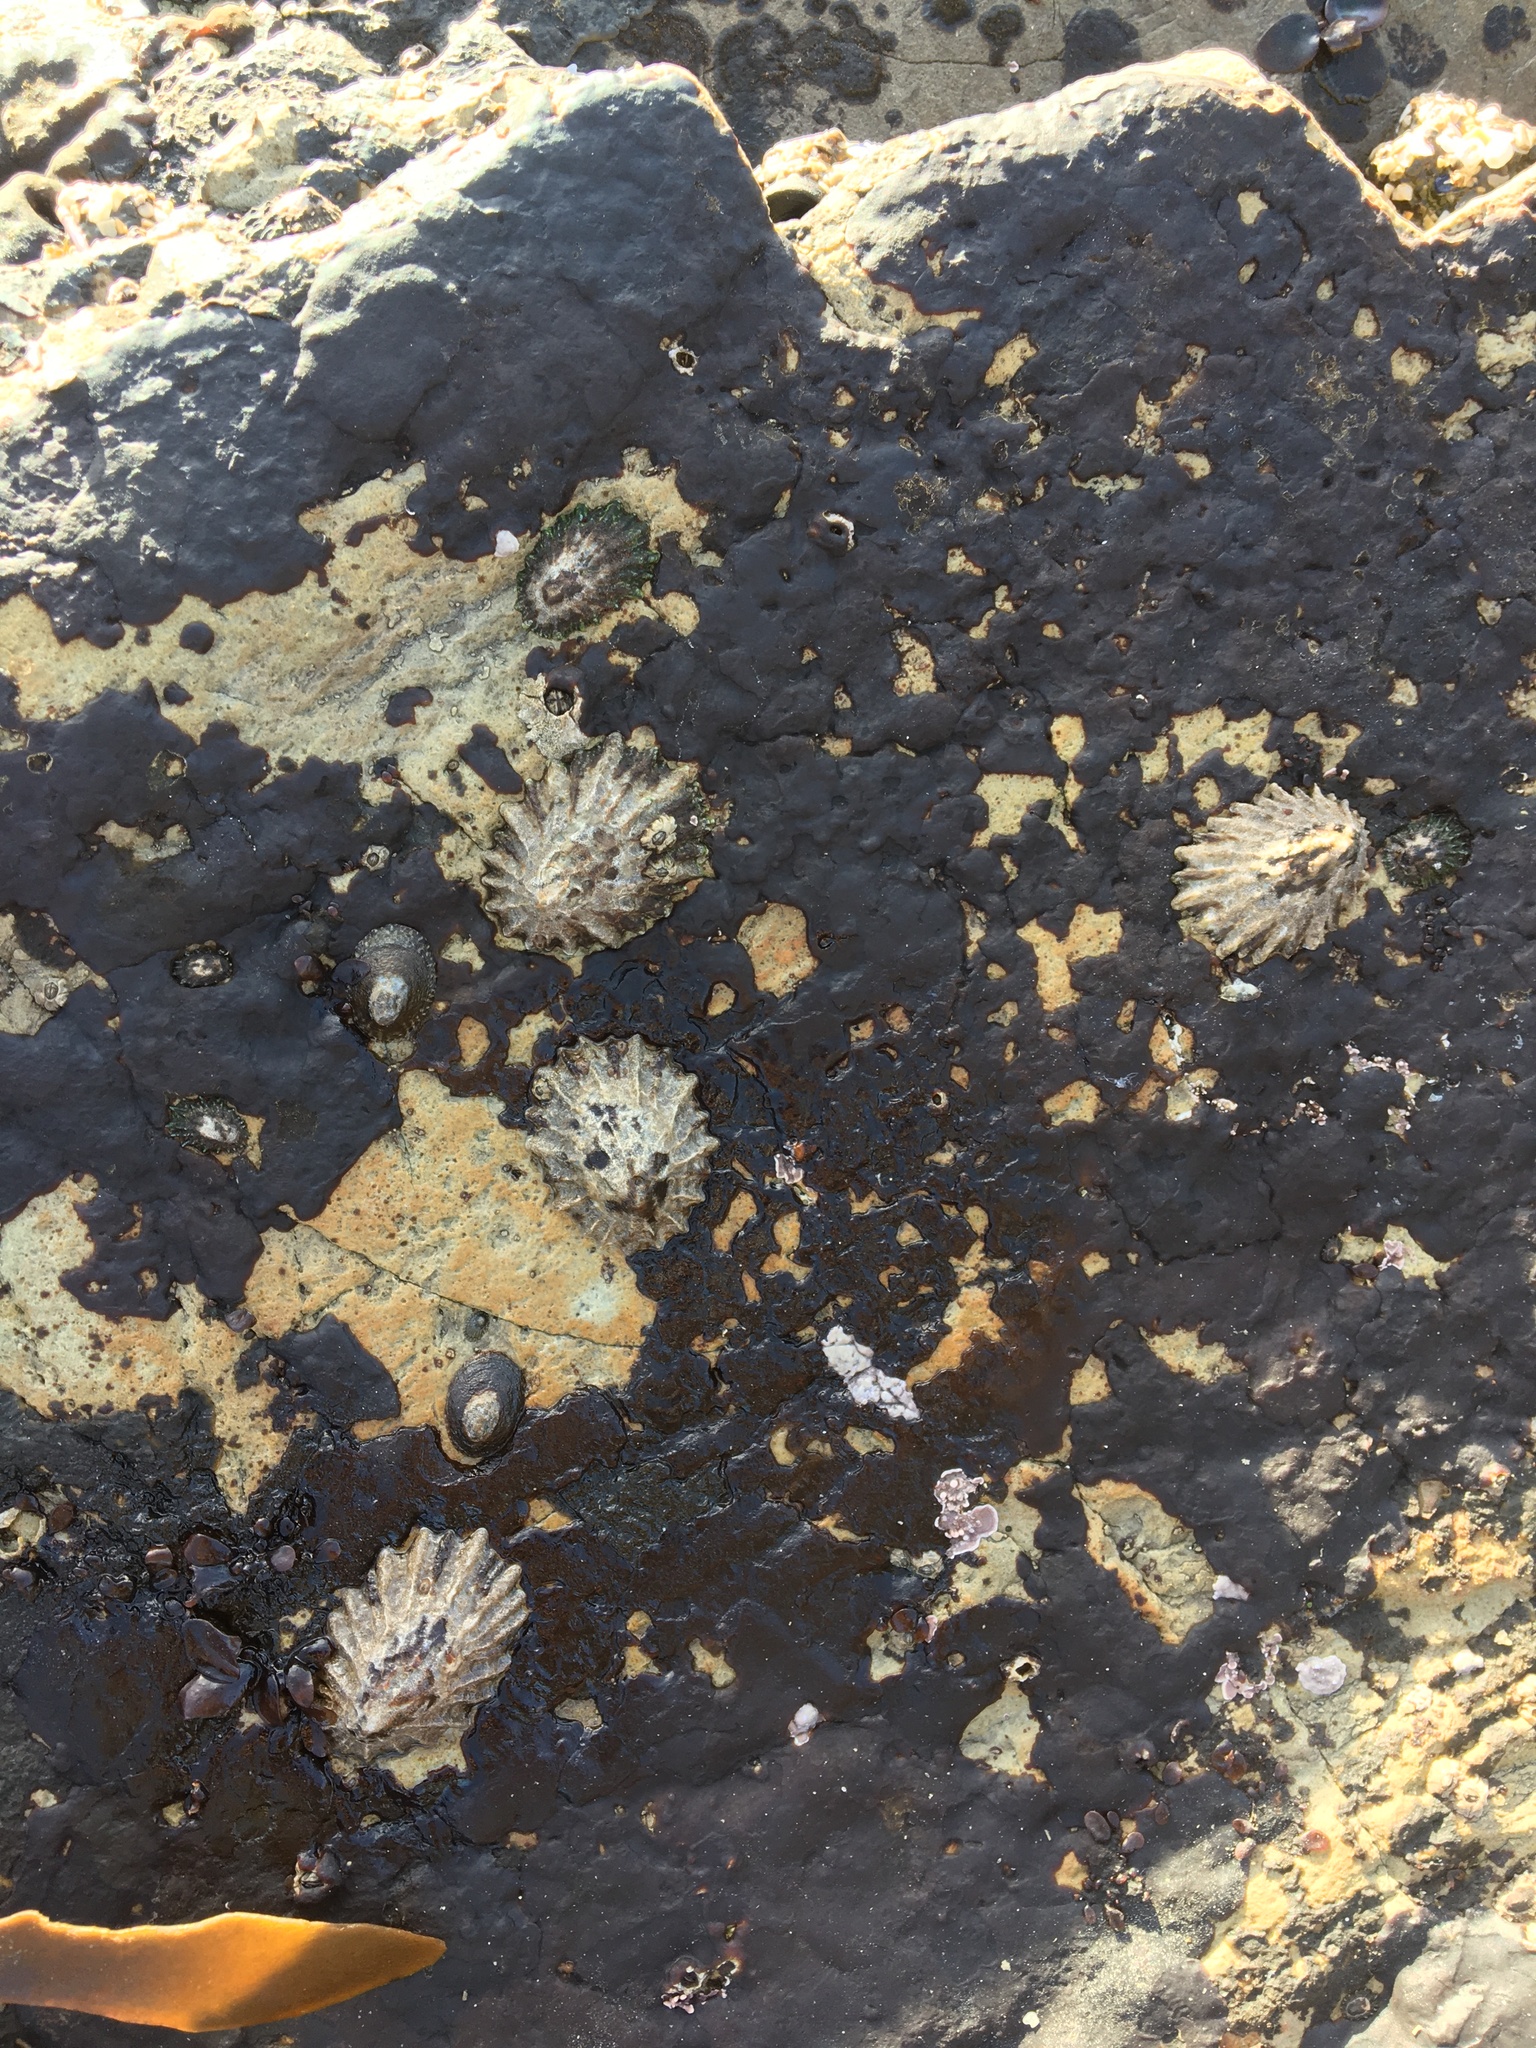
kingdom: Animalia
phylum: Mollusca
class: Gastropoda
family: Lottiidae
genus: Lottia
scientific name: Lottia scabra
